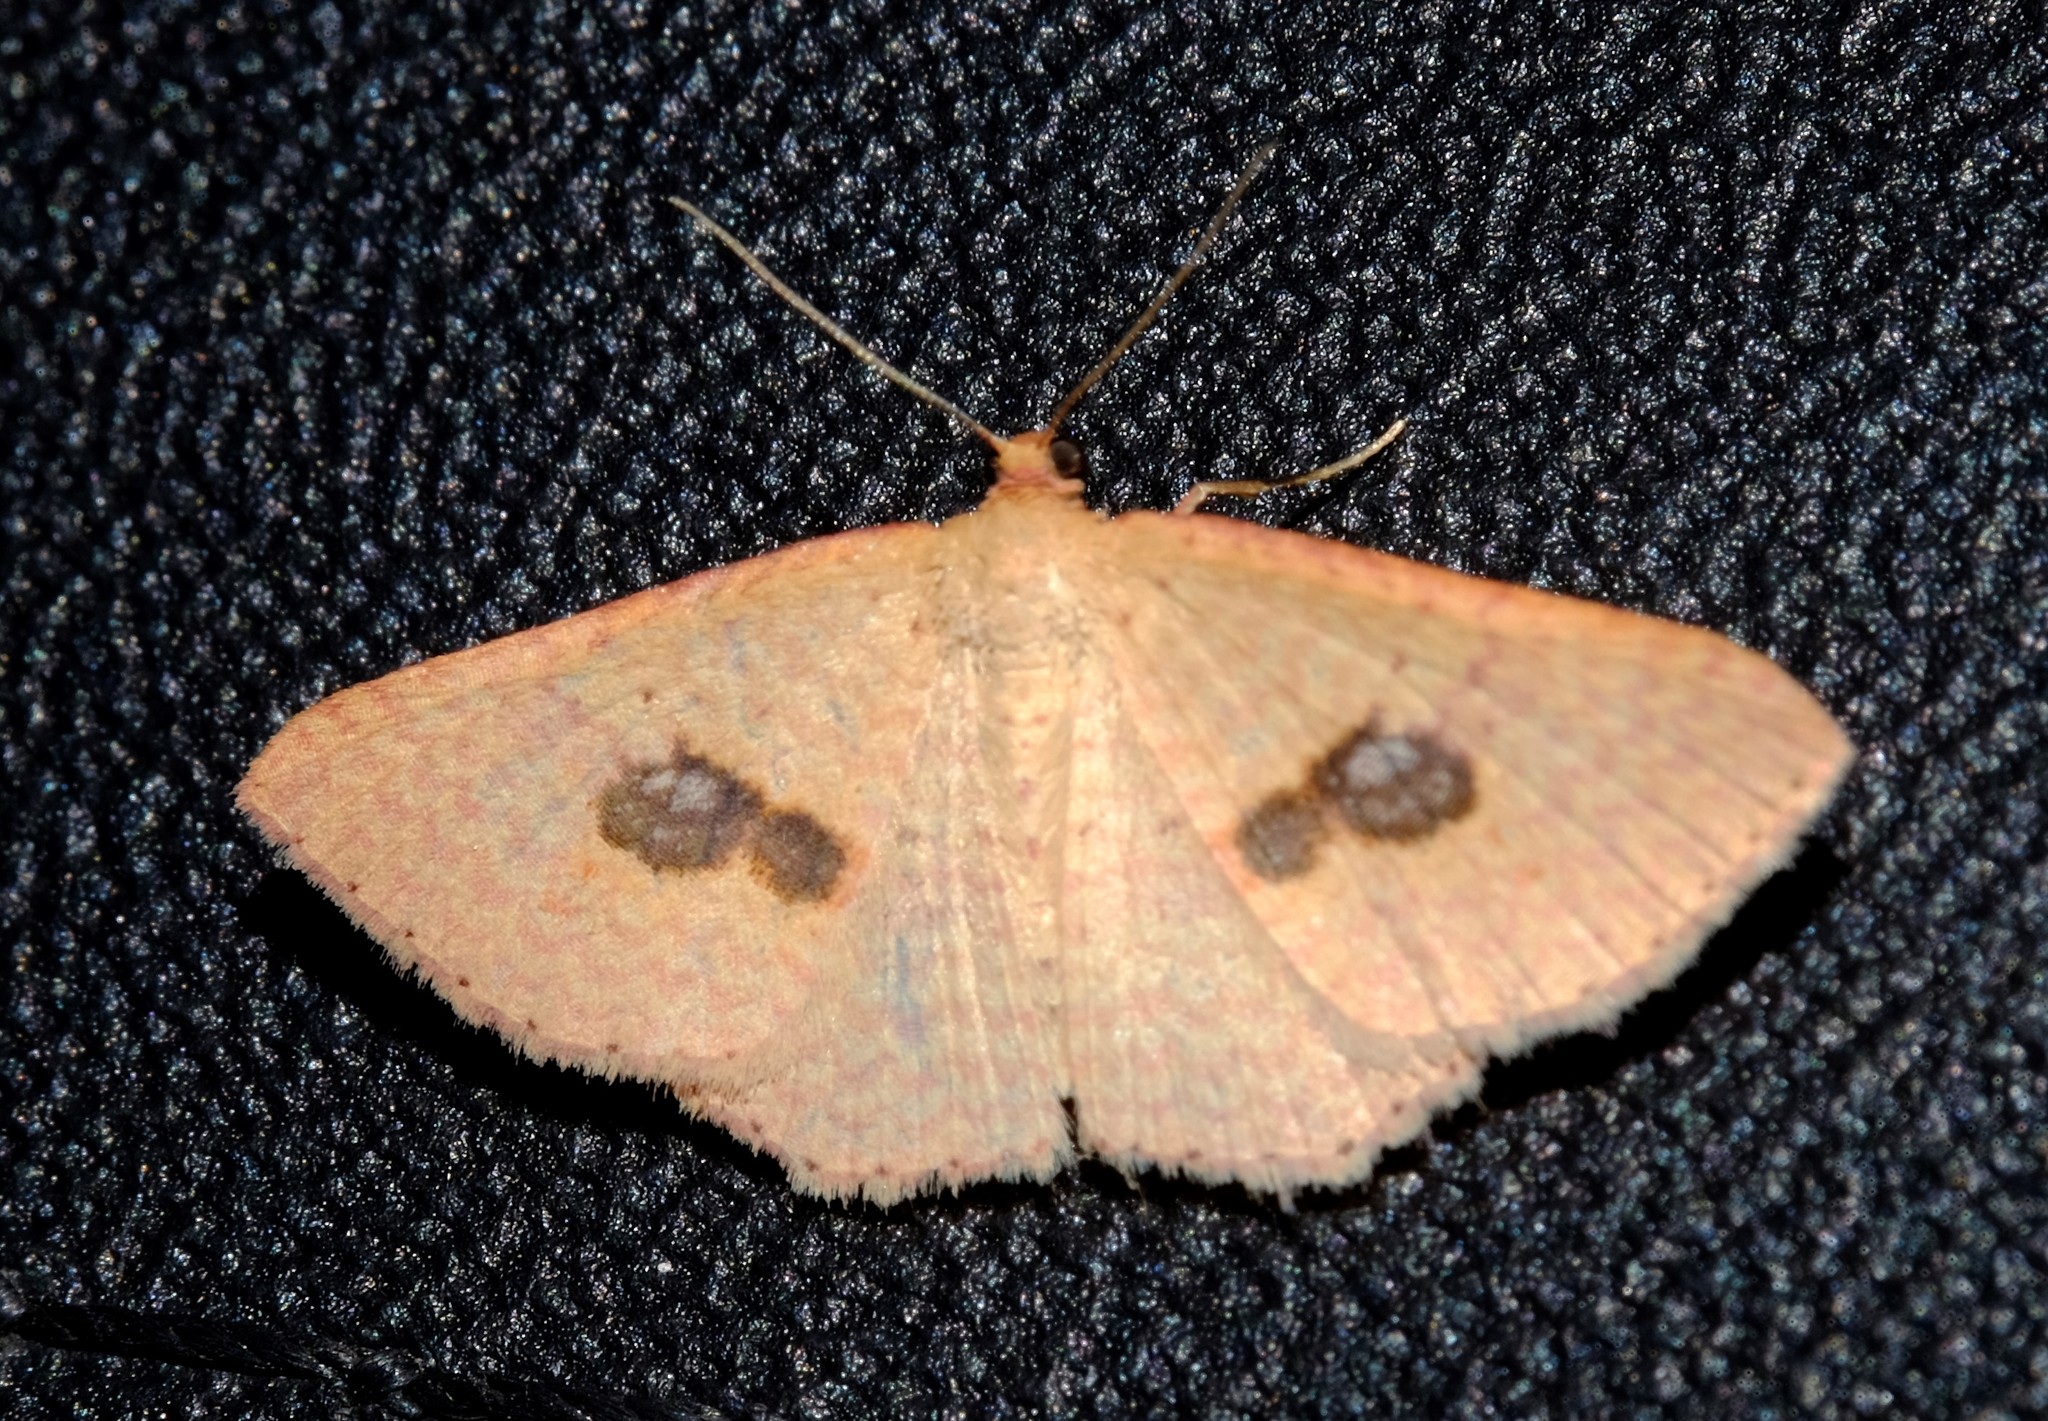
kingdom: Animalia
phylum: Arthropoda
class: Insecta
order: Lepidoptera
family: Geometridae
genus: Epicyme
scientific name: Epicyme rubropunctaria
